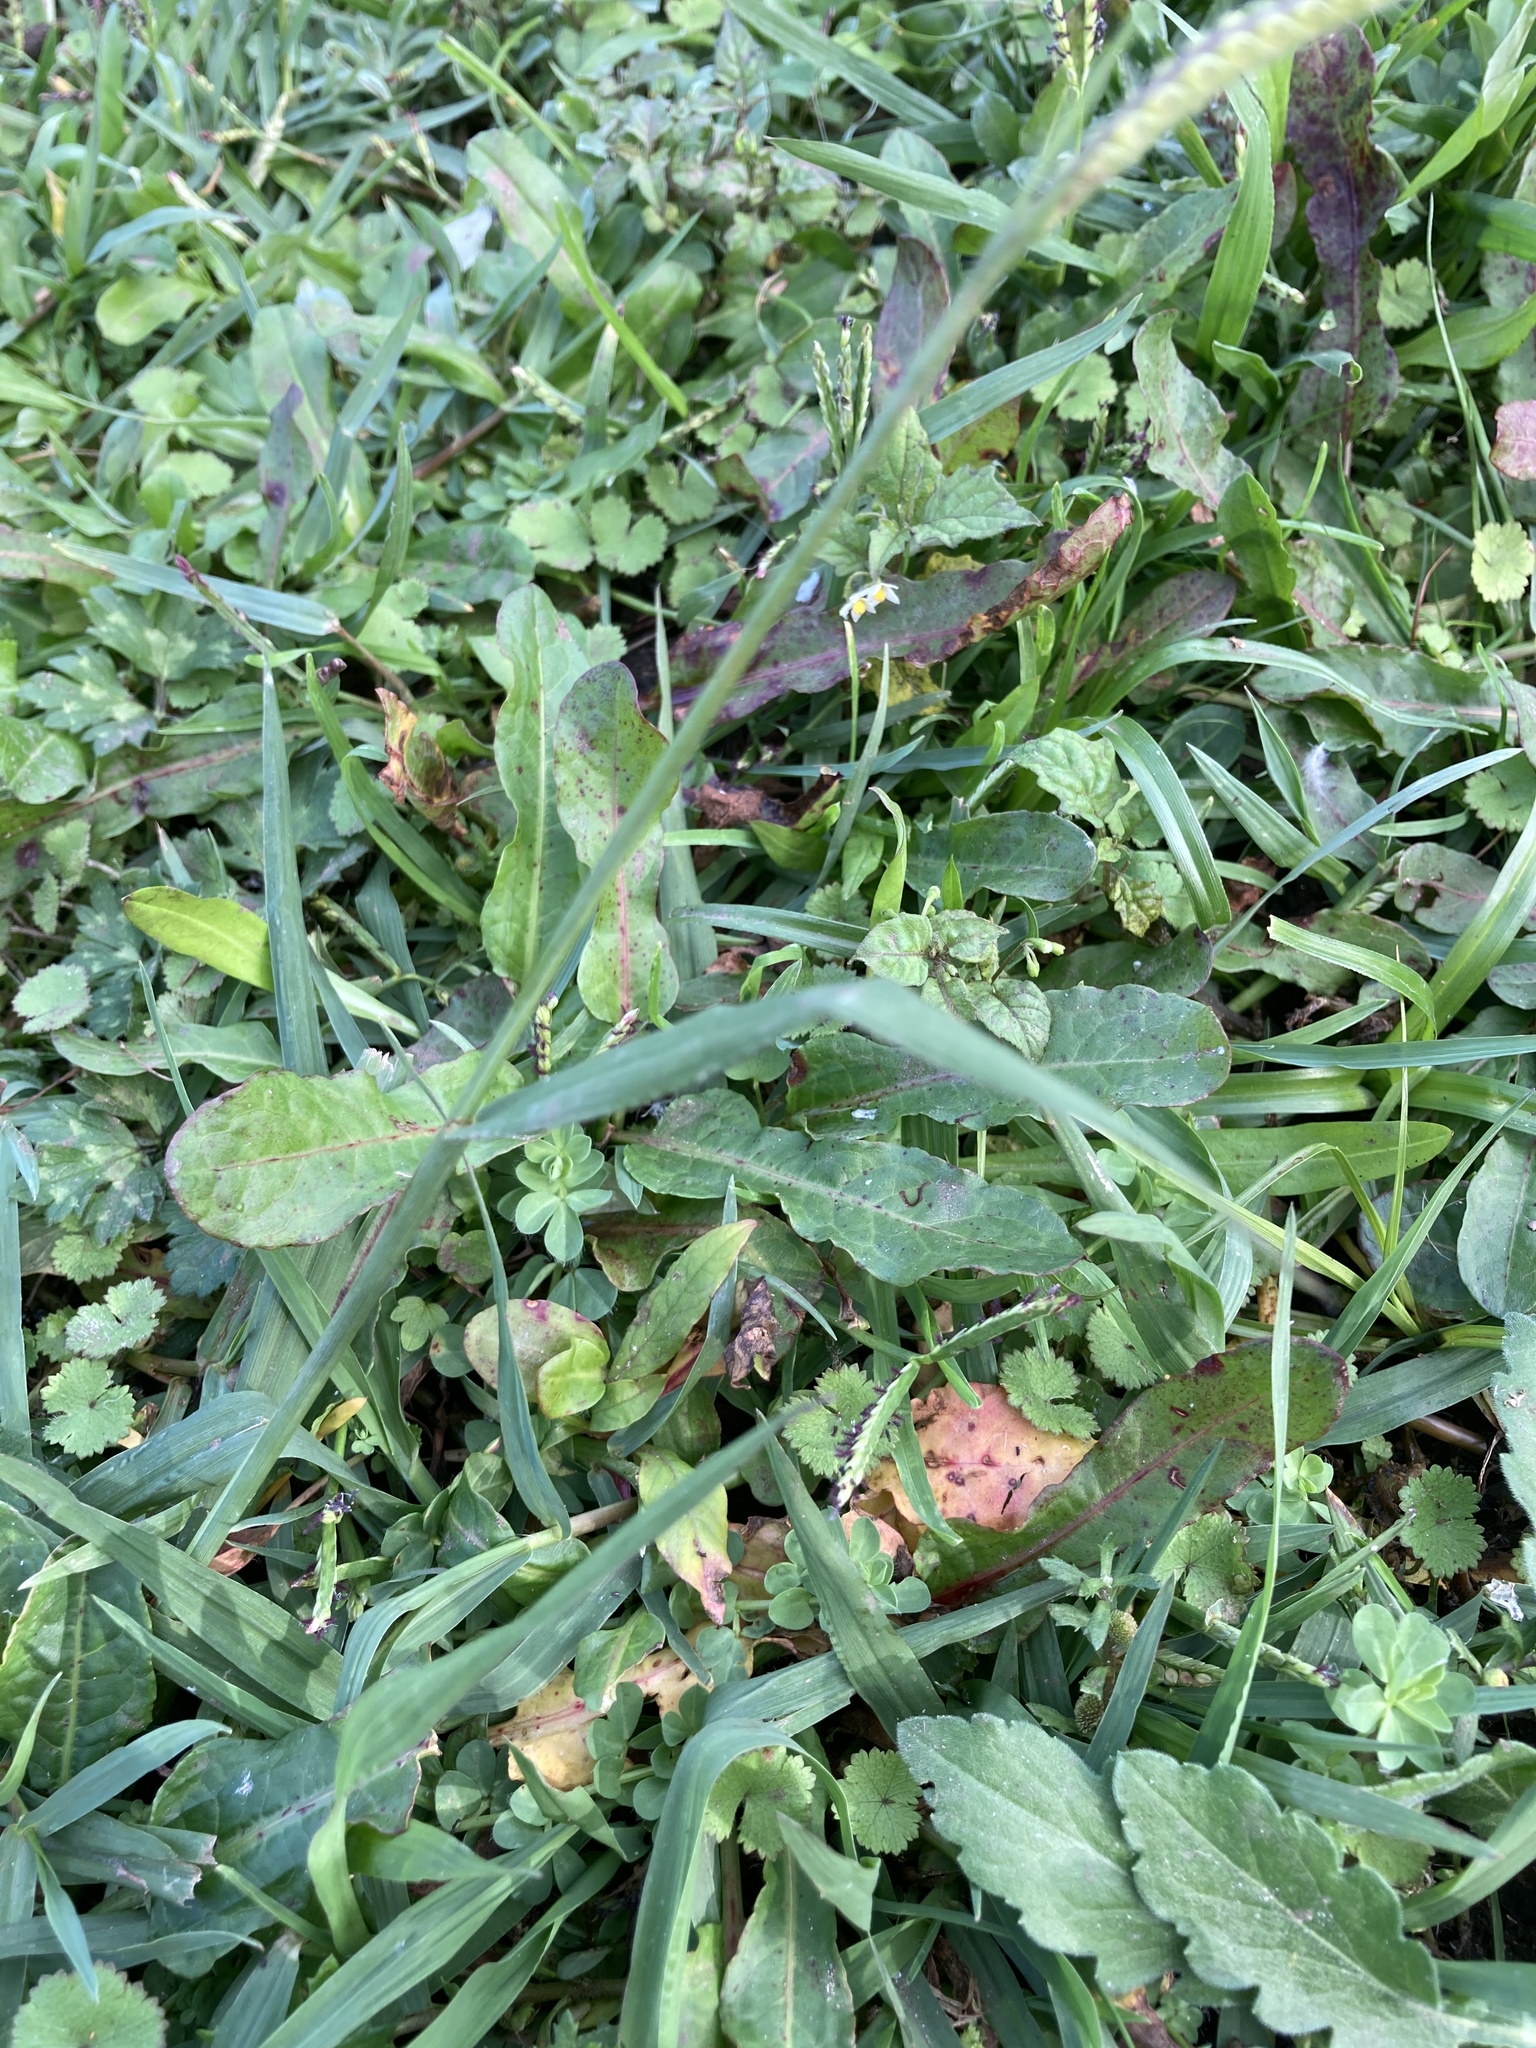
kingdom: Plantae
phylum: Tracheophyta
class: Liliopsida
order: Poales
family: Poaceae
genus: Paspalum
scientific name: Paspalum dilatatum
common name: Dallisgrass
